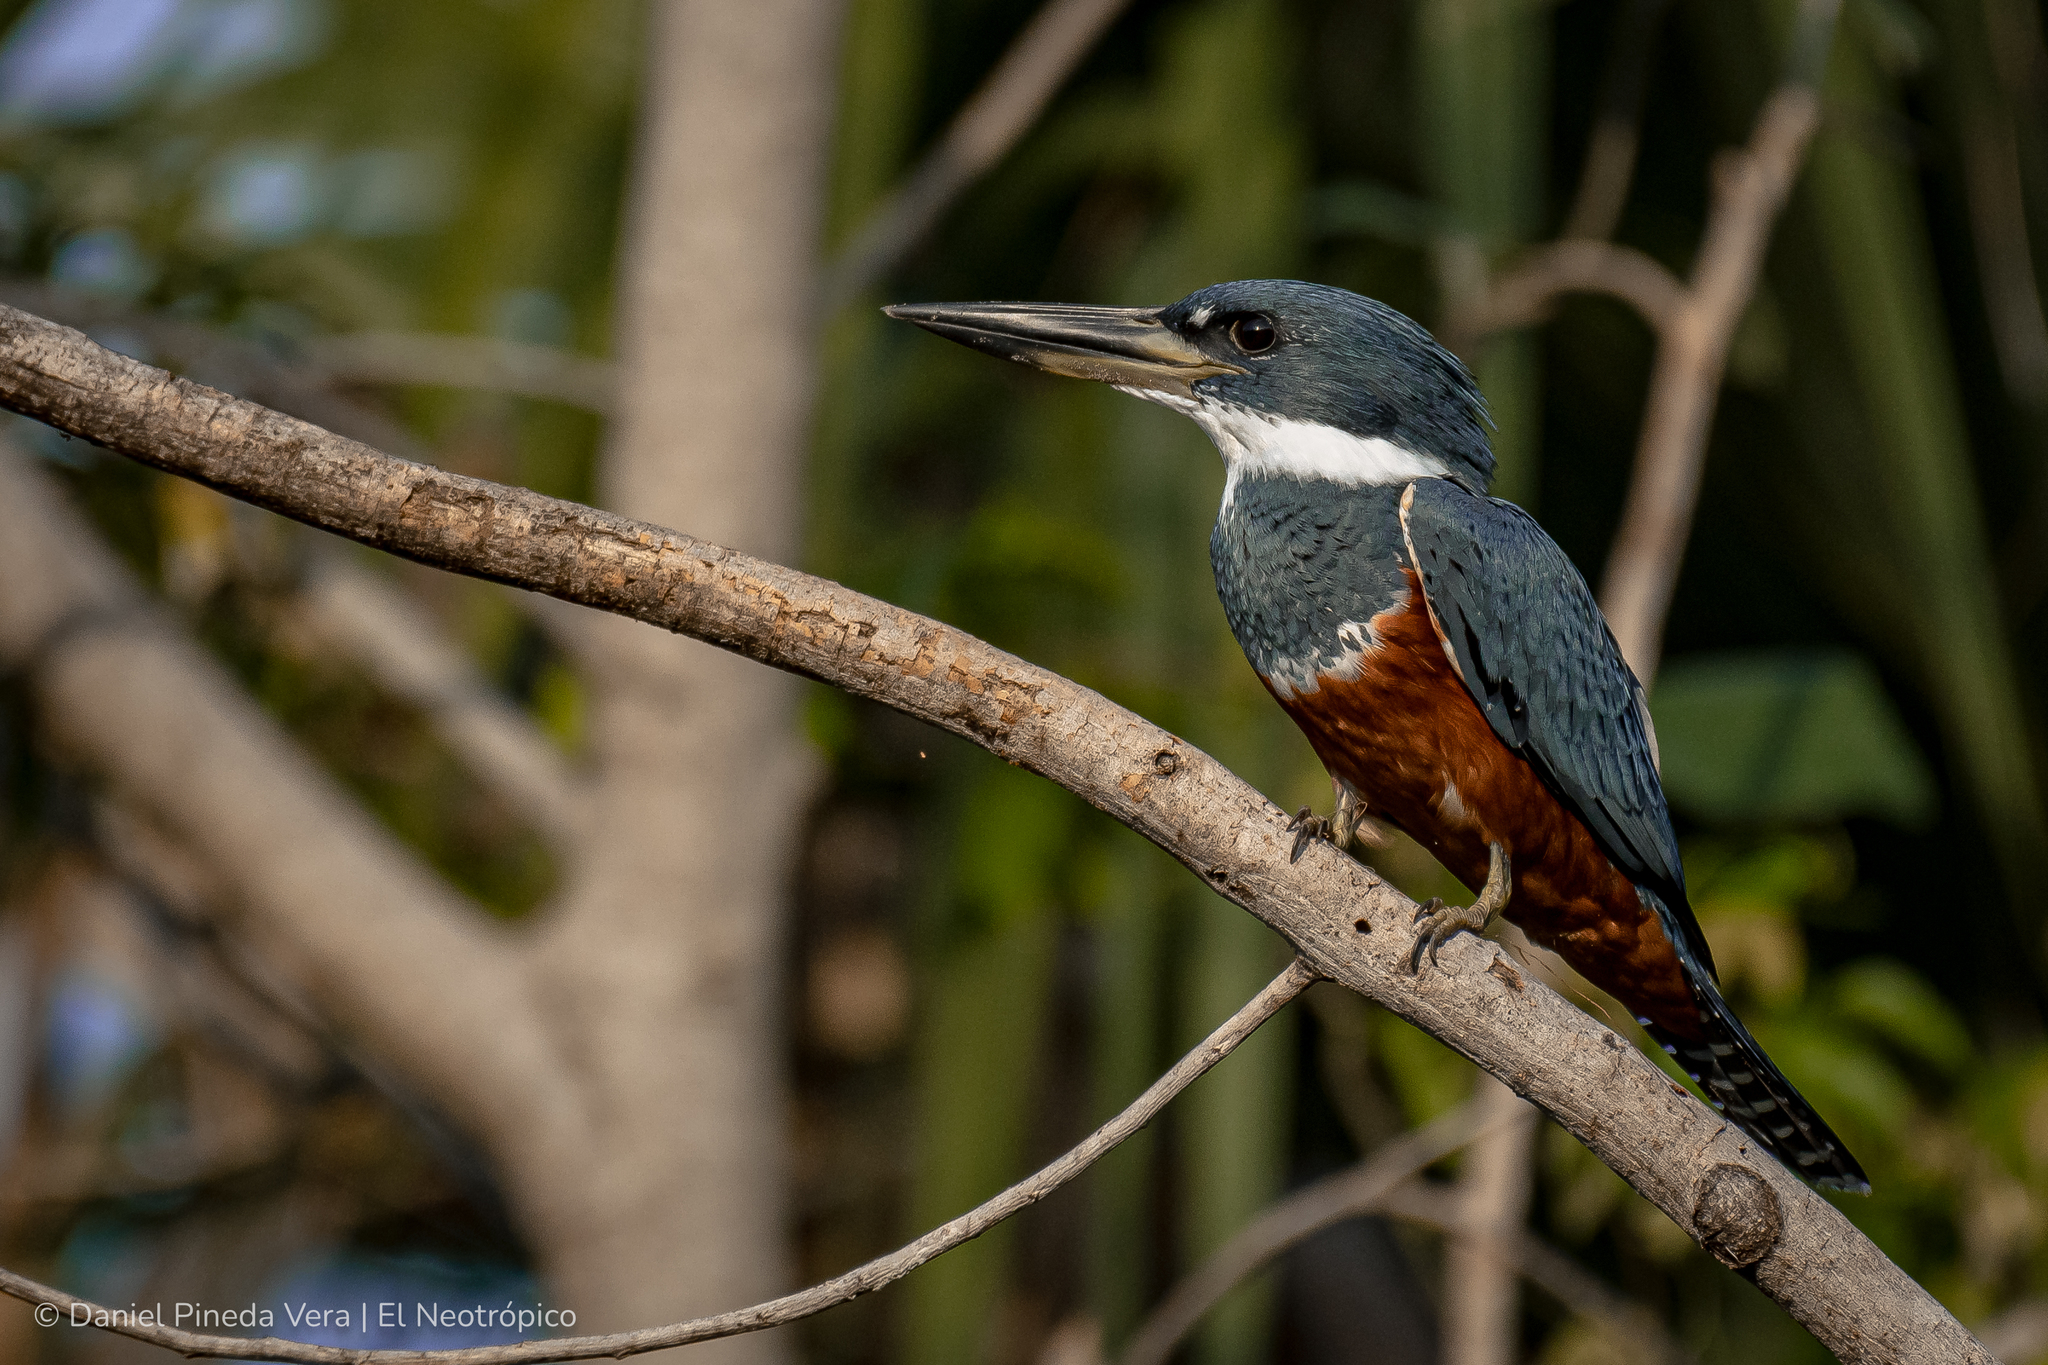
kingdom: Animalia
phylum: Chordata
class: Aves
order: Coraciiformes
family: Alcedinidae
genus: Megaceryle
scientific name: Megaceryle torquata
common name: Ringed kingfisher
